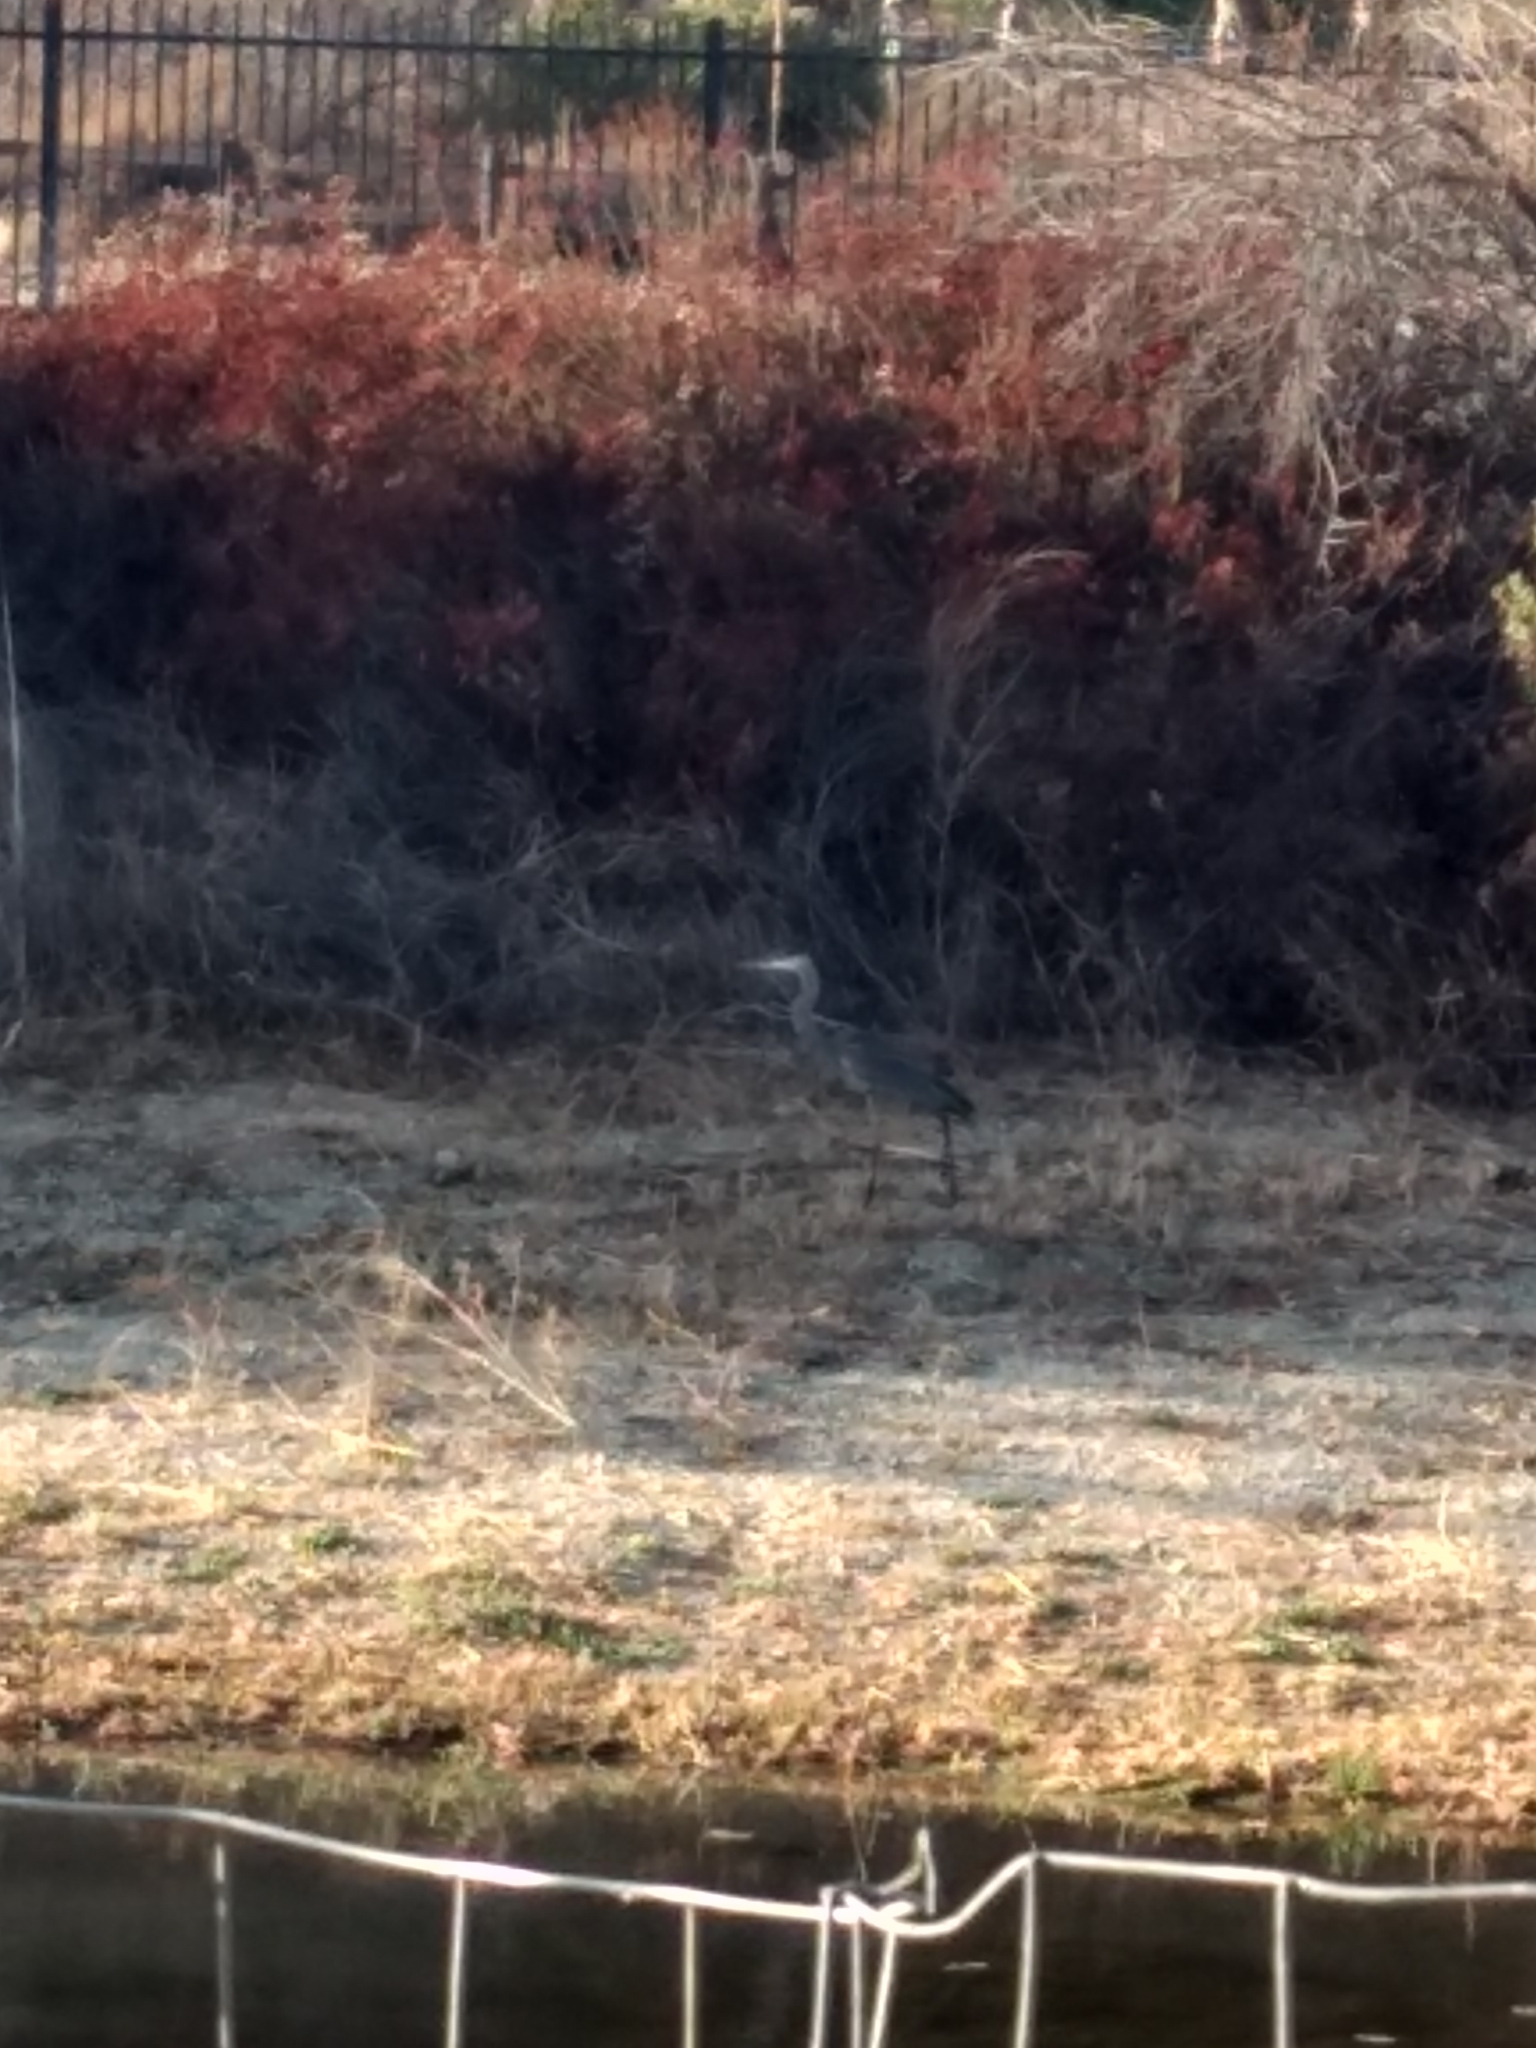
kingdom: Animalia
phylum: Chordata
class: Aves
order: Pelecaniformes
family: Ardeidae
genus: Ardea
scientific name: Ardea herodias
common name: Great blue heron
